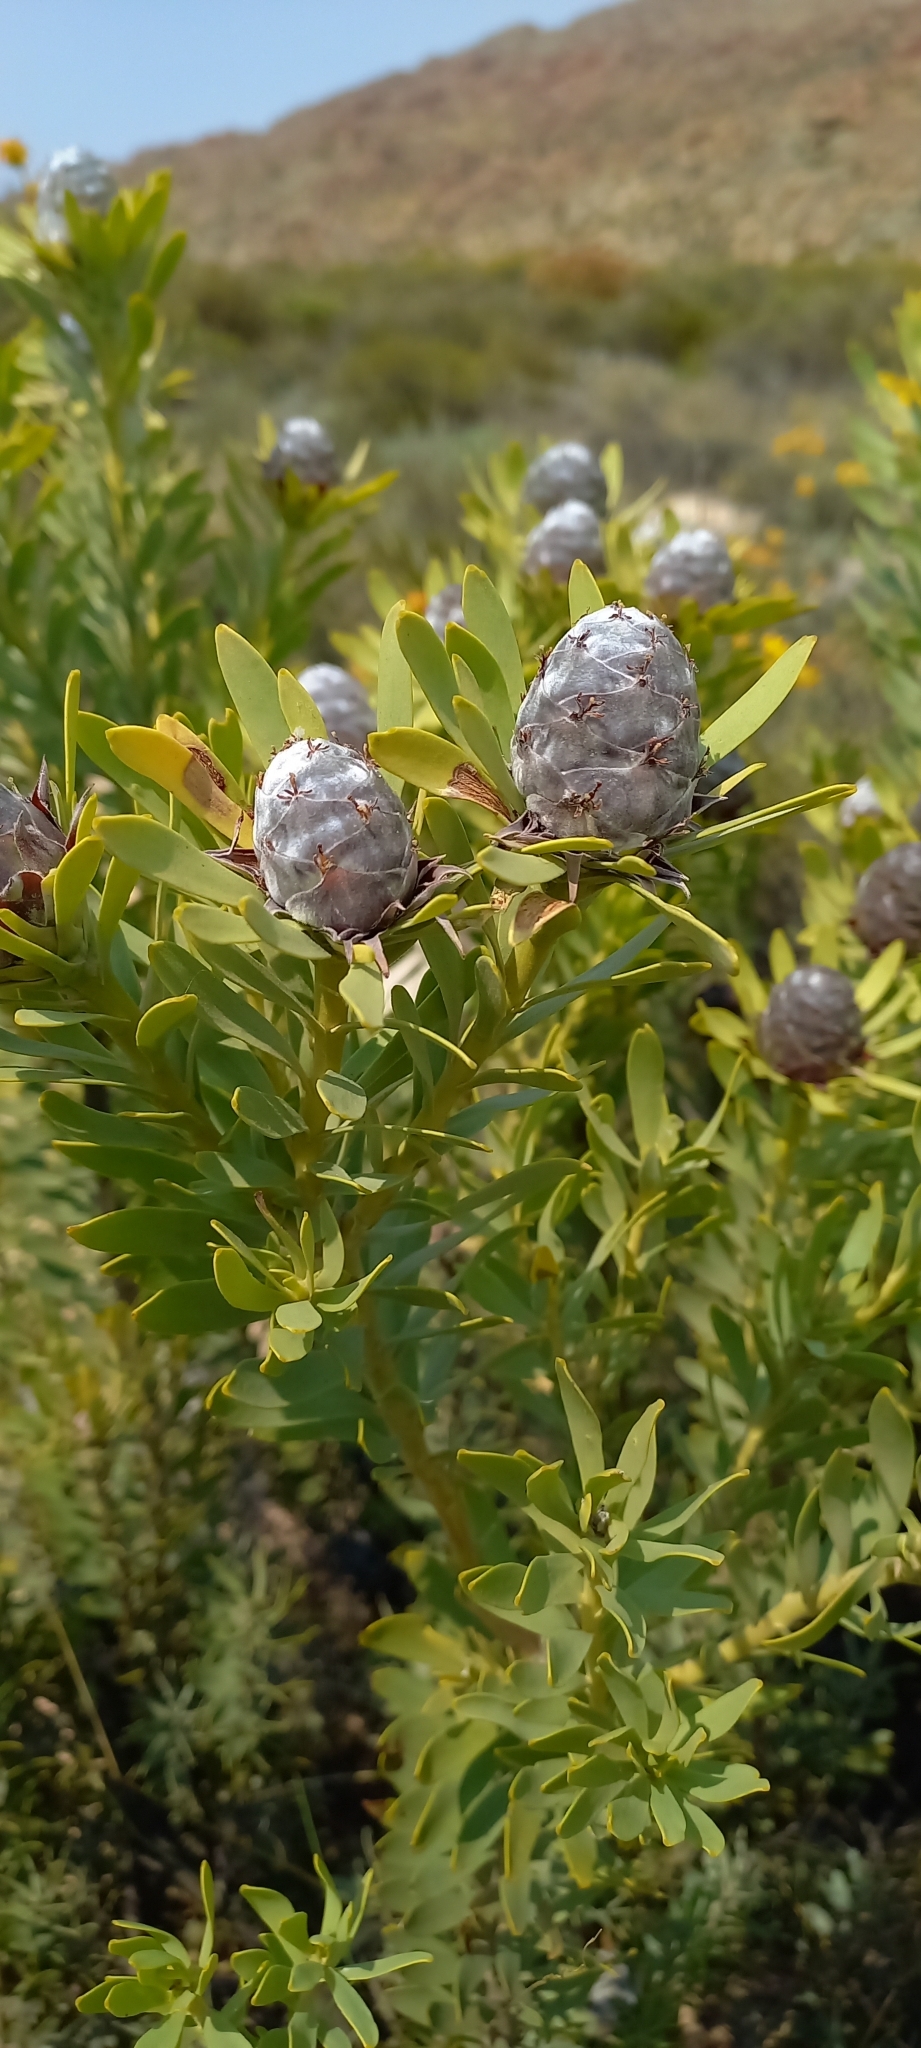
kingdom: Plantae
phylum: Tracheophyta
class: Magnoliopsida
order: Proteales
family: Proteaceae
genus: Leucadendron
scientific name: Leucadendron pubescens
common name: Grey conebush
